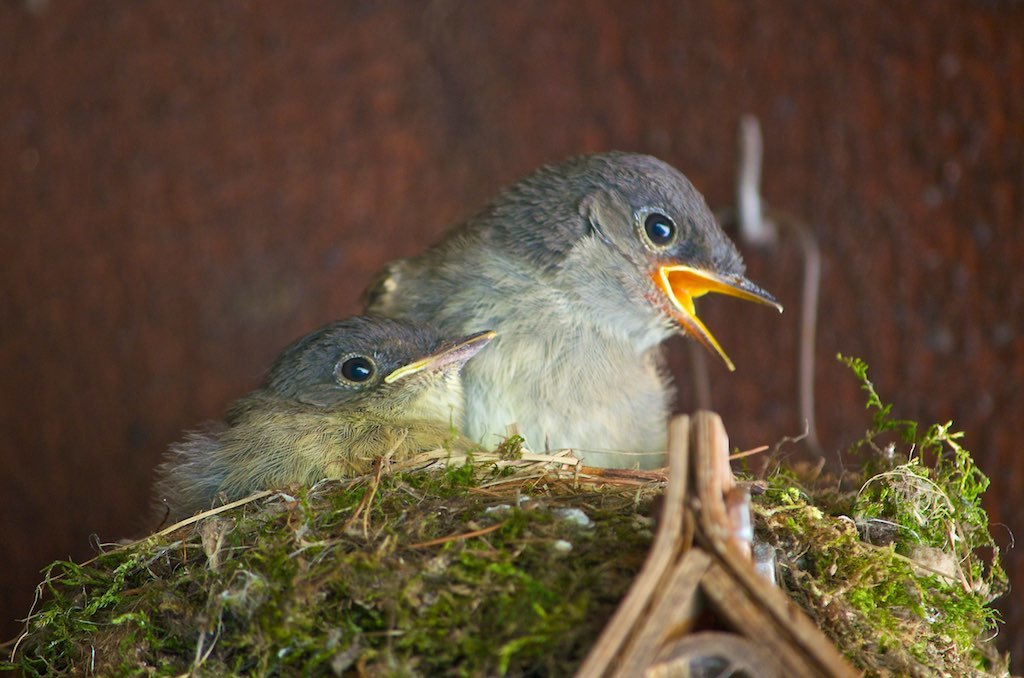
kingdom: Animalia
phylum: Chordata
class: Aves
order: Passeriformes
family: Tyrannidae
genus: Sayornis
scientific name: Sayornis phoebe
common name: Eastern phoebe
